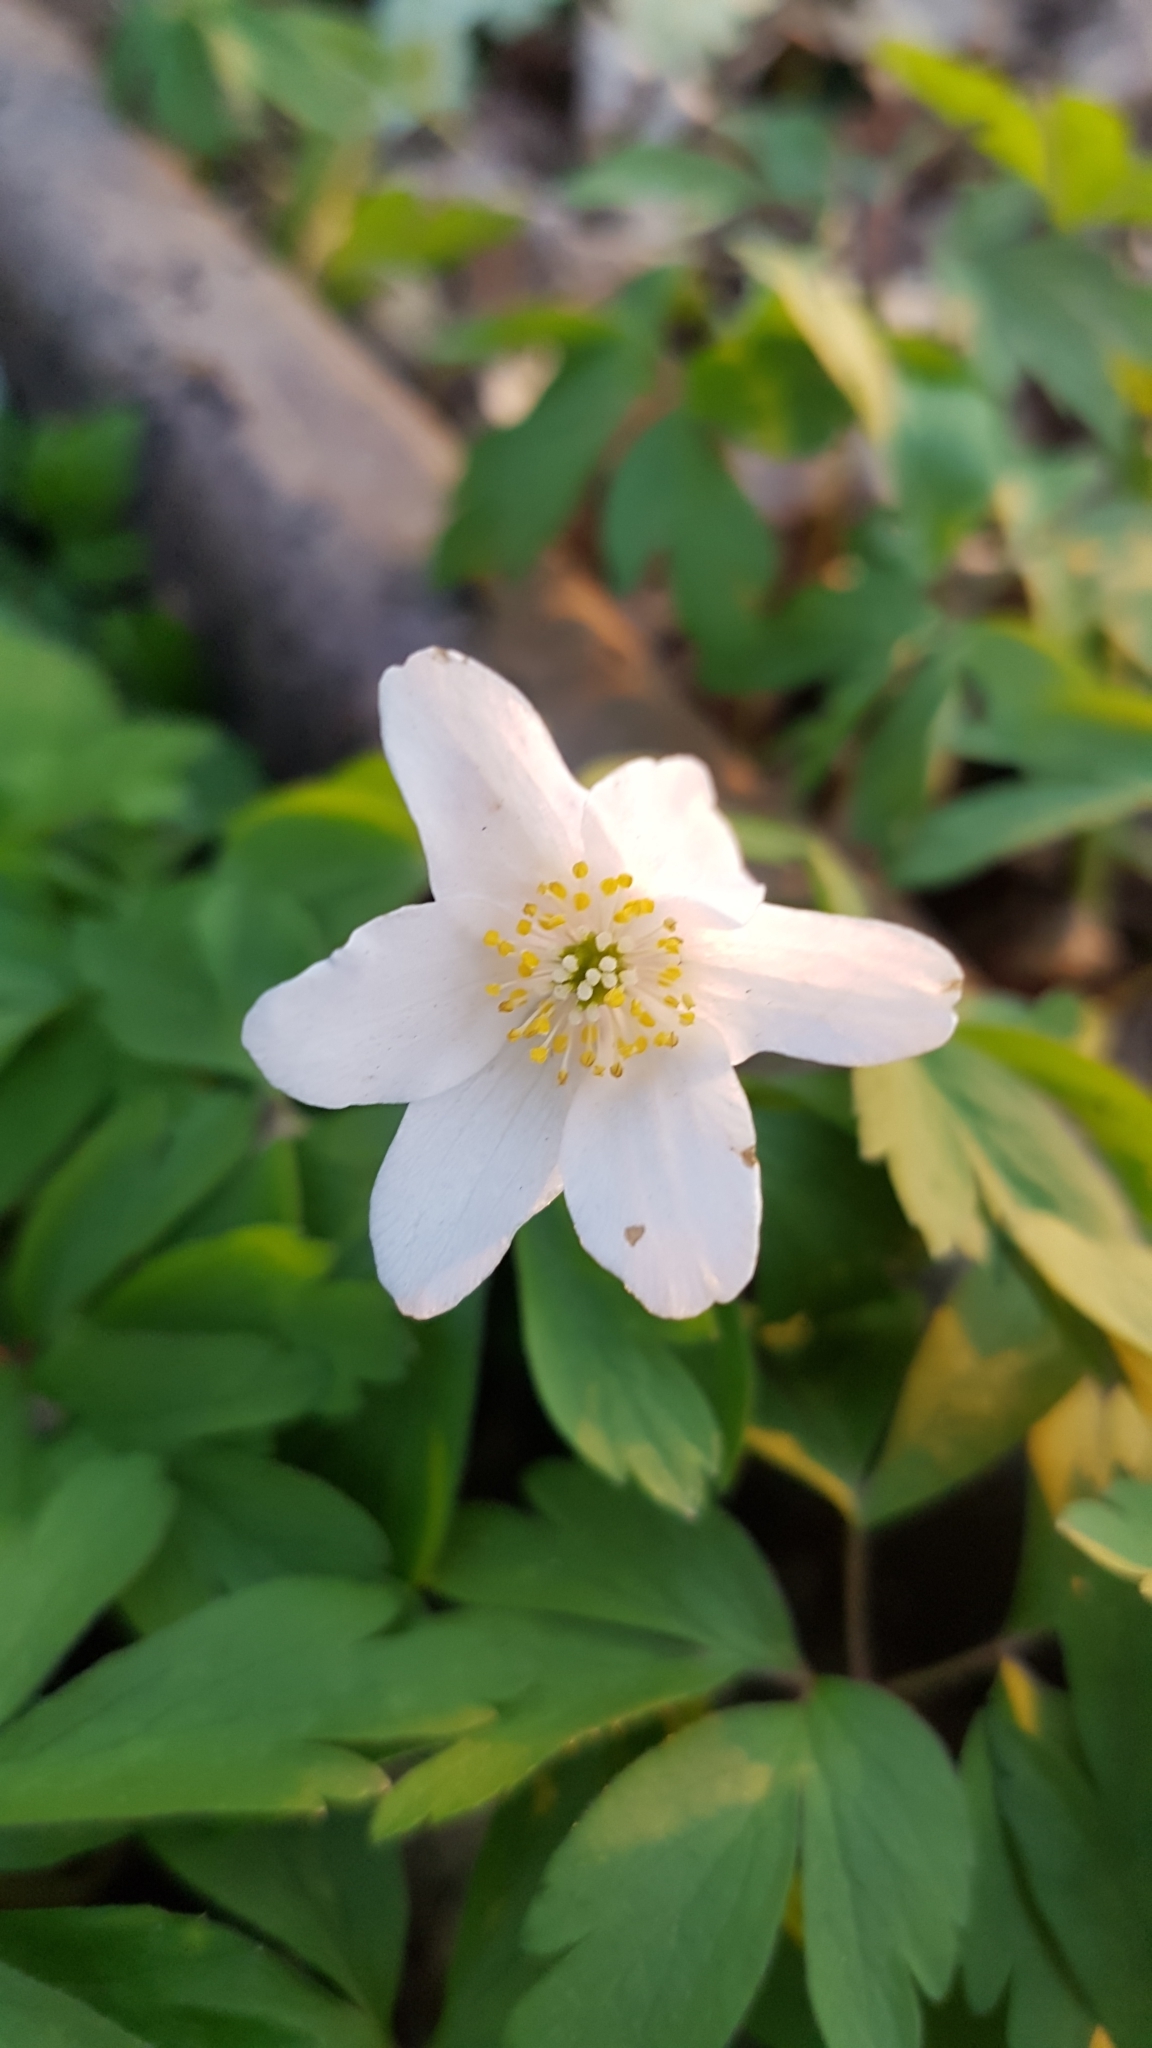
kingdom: Plantae
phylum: Tracheophyta
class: Magnoliopsida
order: Ranunculales
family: Ranunculaceae
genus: Anemone
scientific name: Anemone nemorosa
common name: Wood anemone
